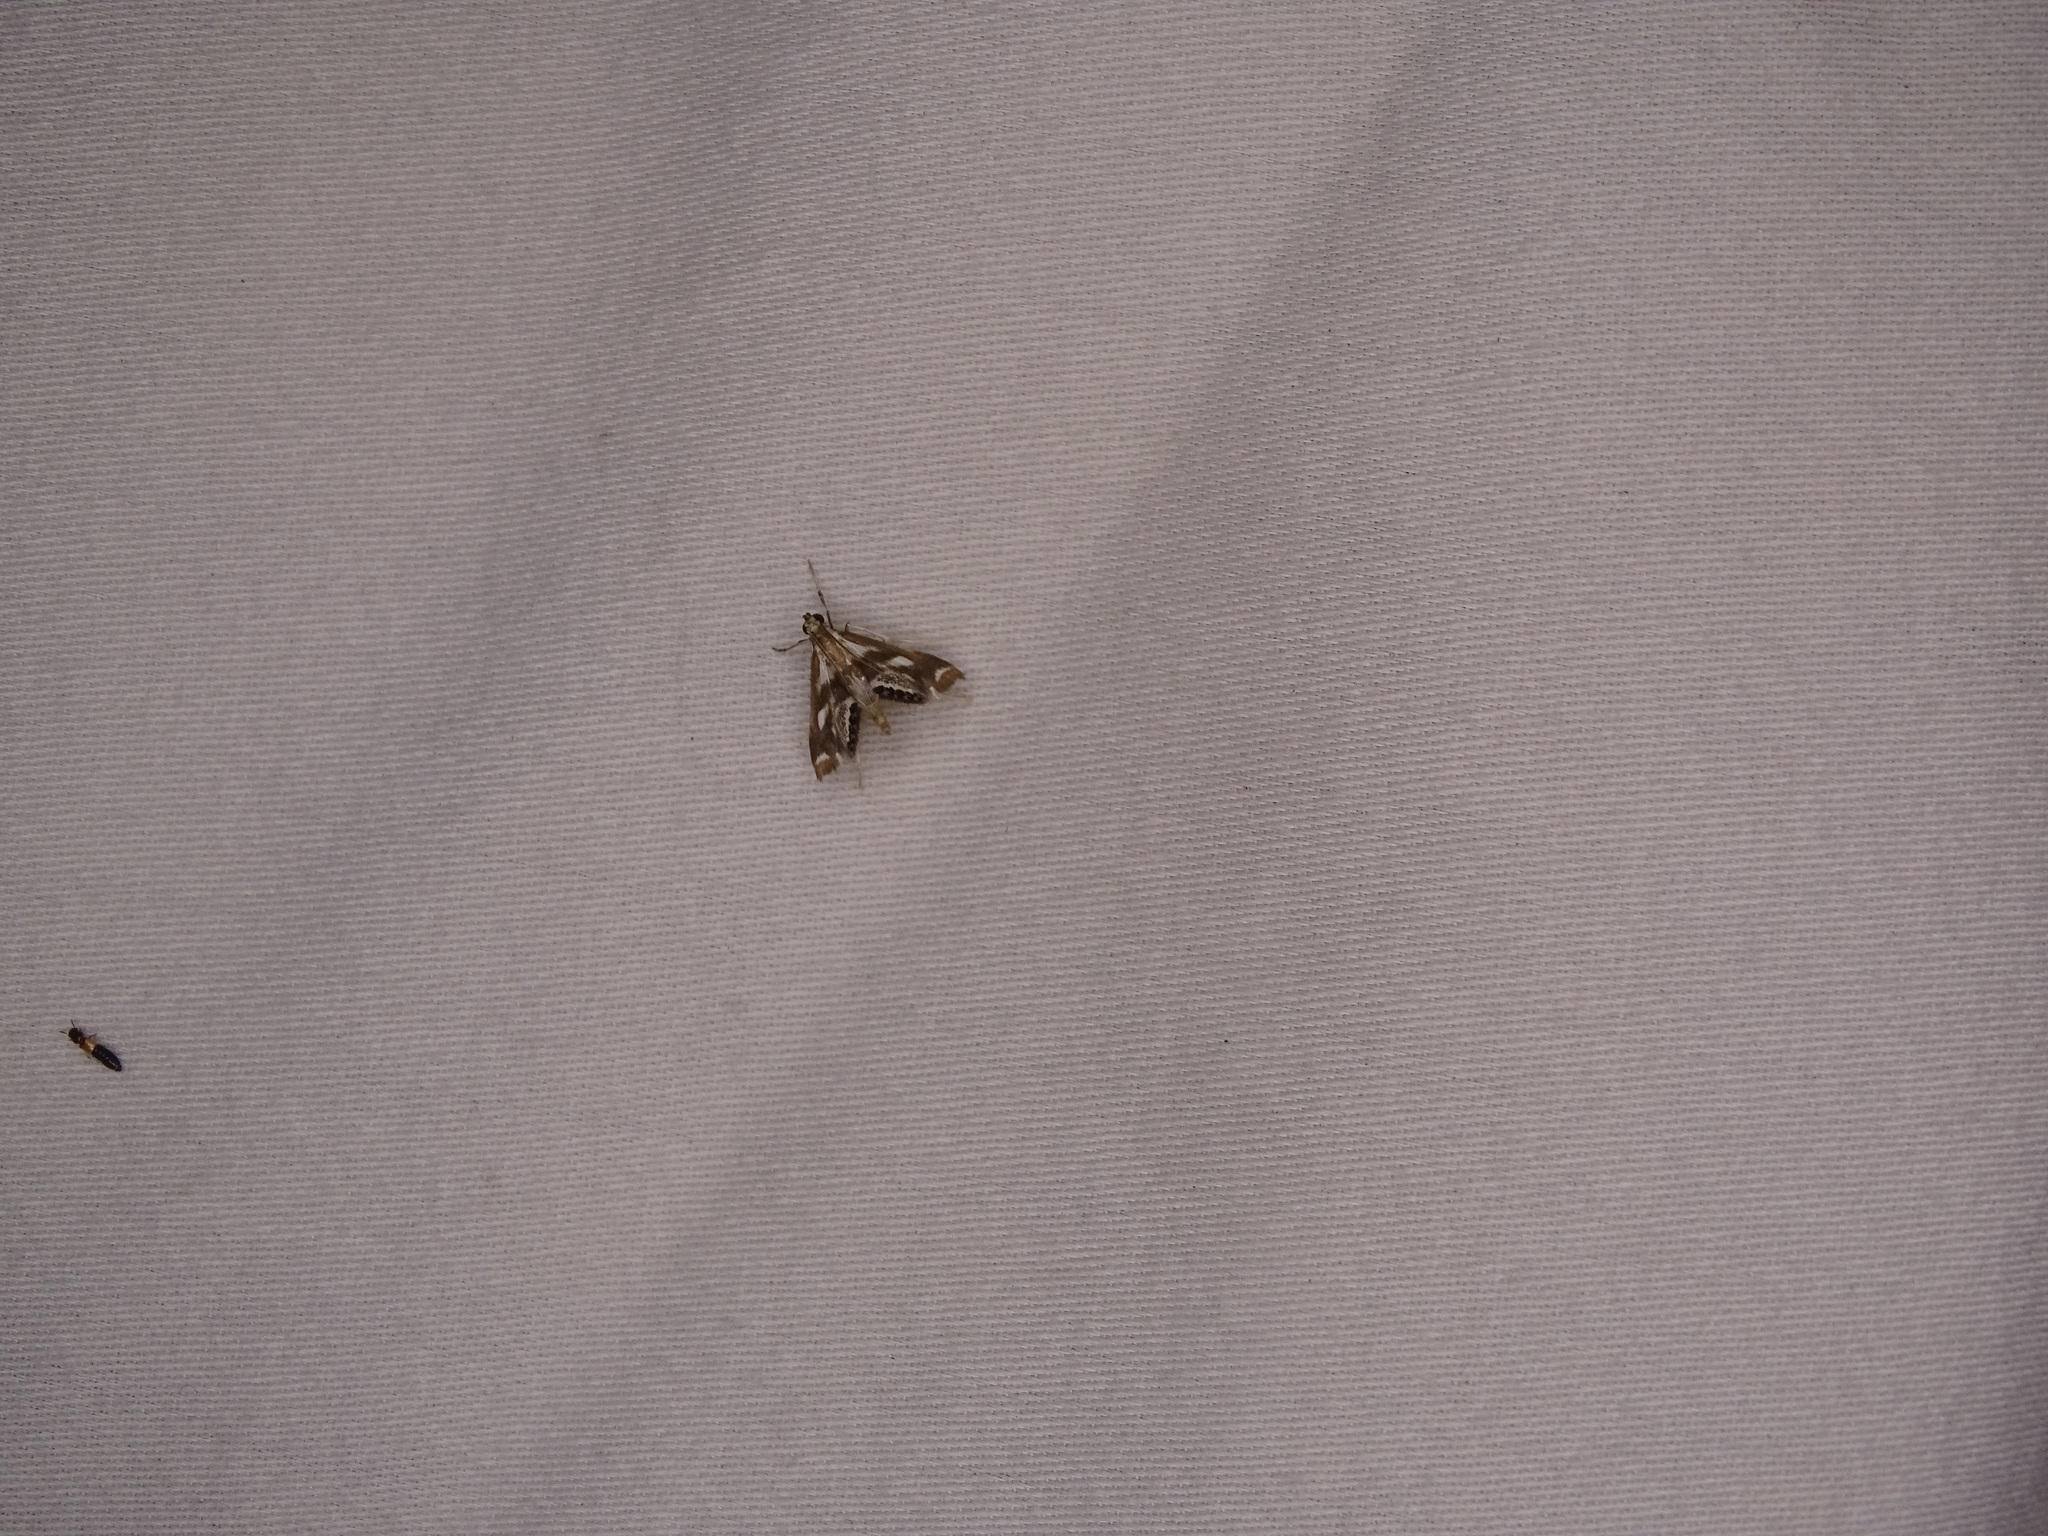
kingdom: Animalia
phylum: Arthropoda
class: Insecta
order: Lepidoptera
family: Crambidae
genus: Chrysendeton
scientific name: Chrysendeton imitabilis
